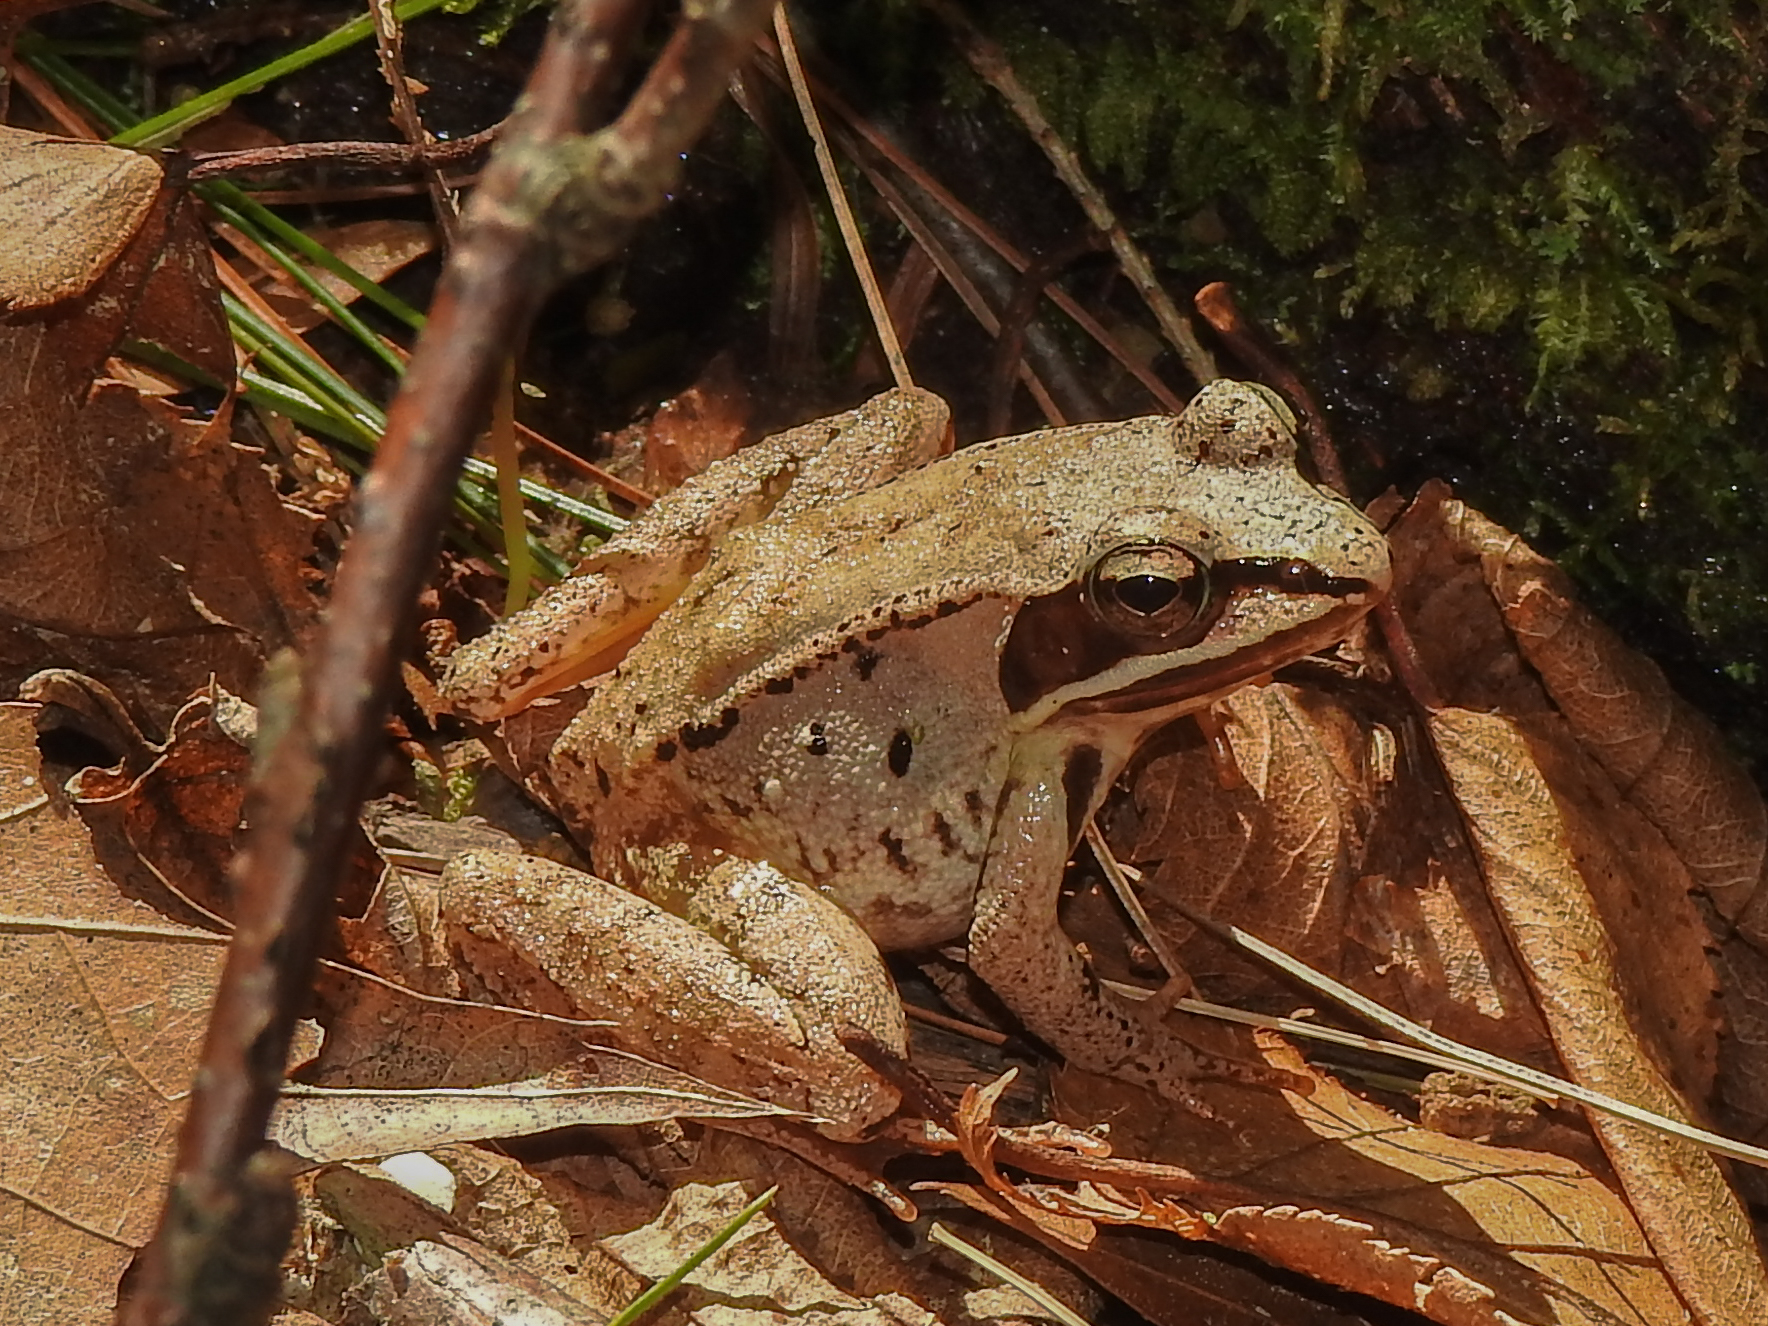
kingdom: Animalia
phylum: Chordata
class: Amphibia
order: Anura
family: Ranidae
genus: Lithobates
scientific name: Lithobates sylvaticus
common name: Wood frog
